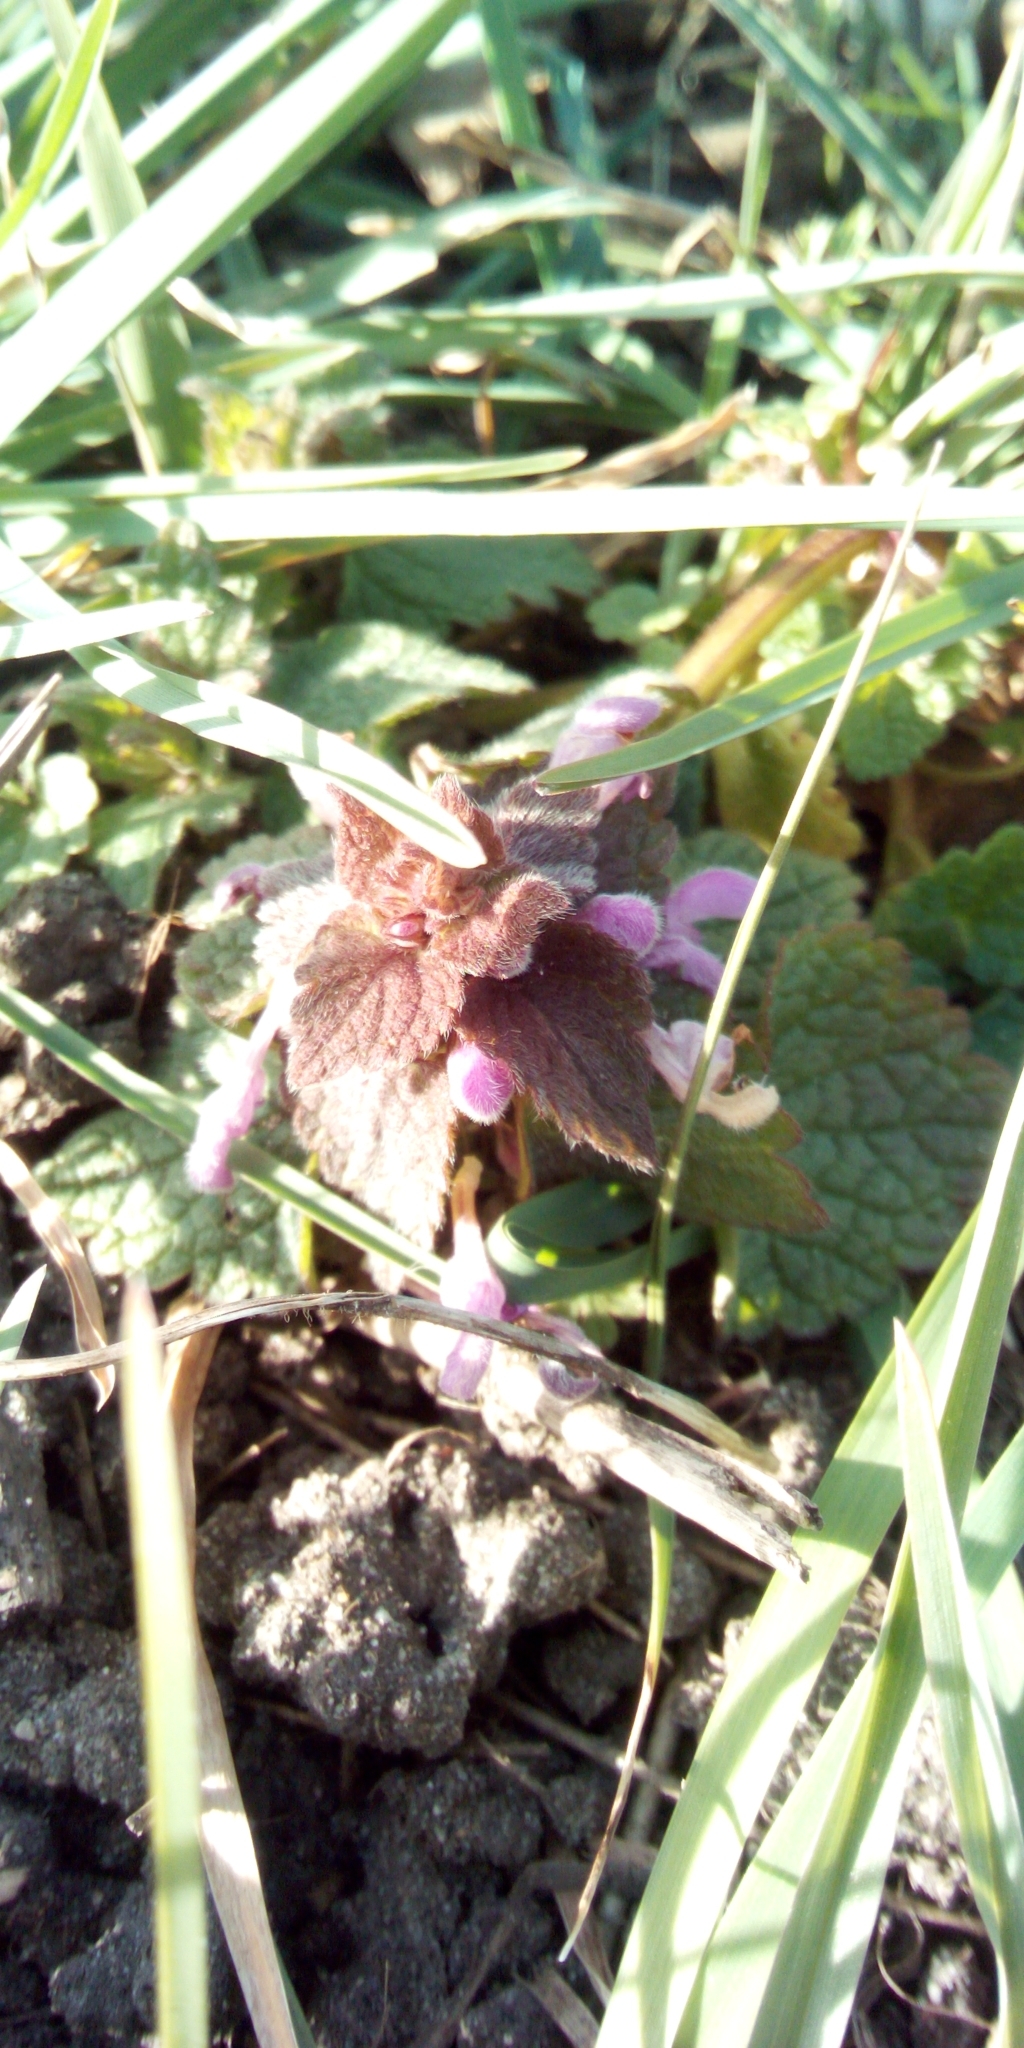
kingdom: Plantae
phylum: Tracheophyta
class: Magnoliopsida
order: Lamiales
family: Lamiaceae
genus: Lamium
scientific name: Lamium purpureum
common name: Red dead-nettle
